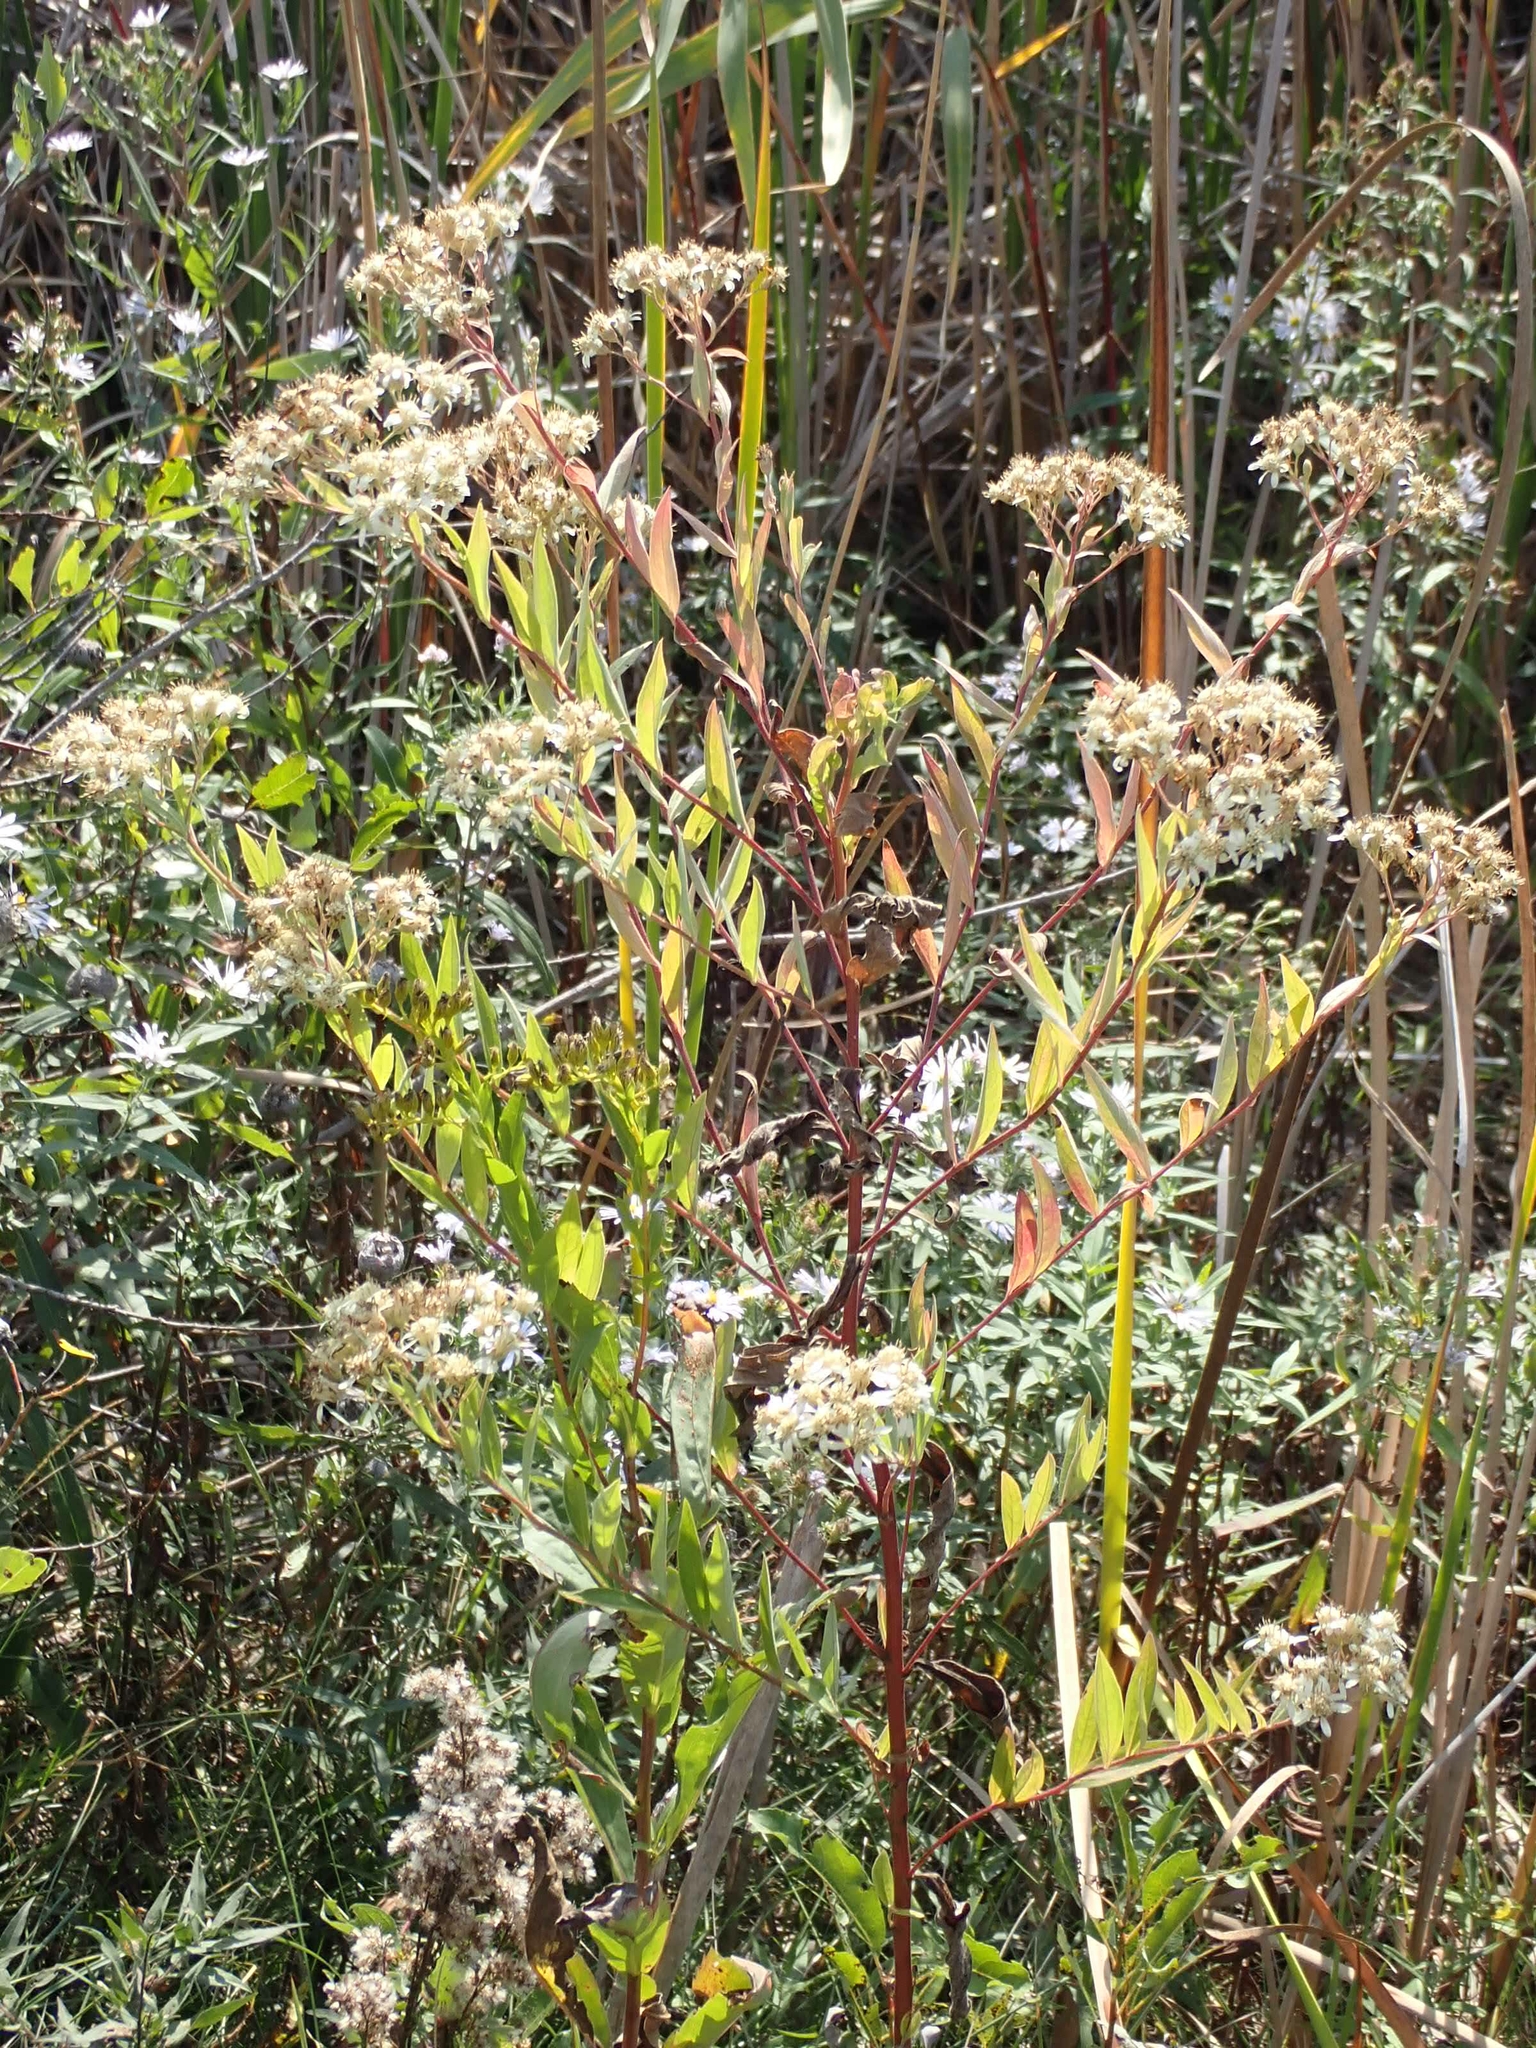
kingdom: Plantae
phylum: Tracheophyta
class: Magnoliopsida
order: Asterales
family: Asteraceae
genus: Doellingeria
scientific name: Doellingeria umbellata
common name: Flat-top white aster
